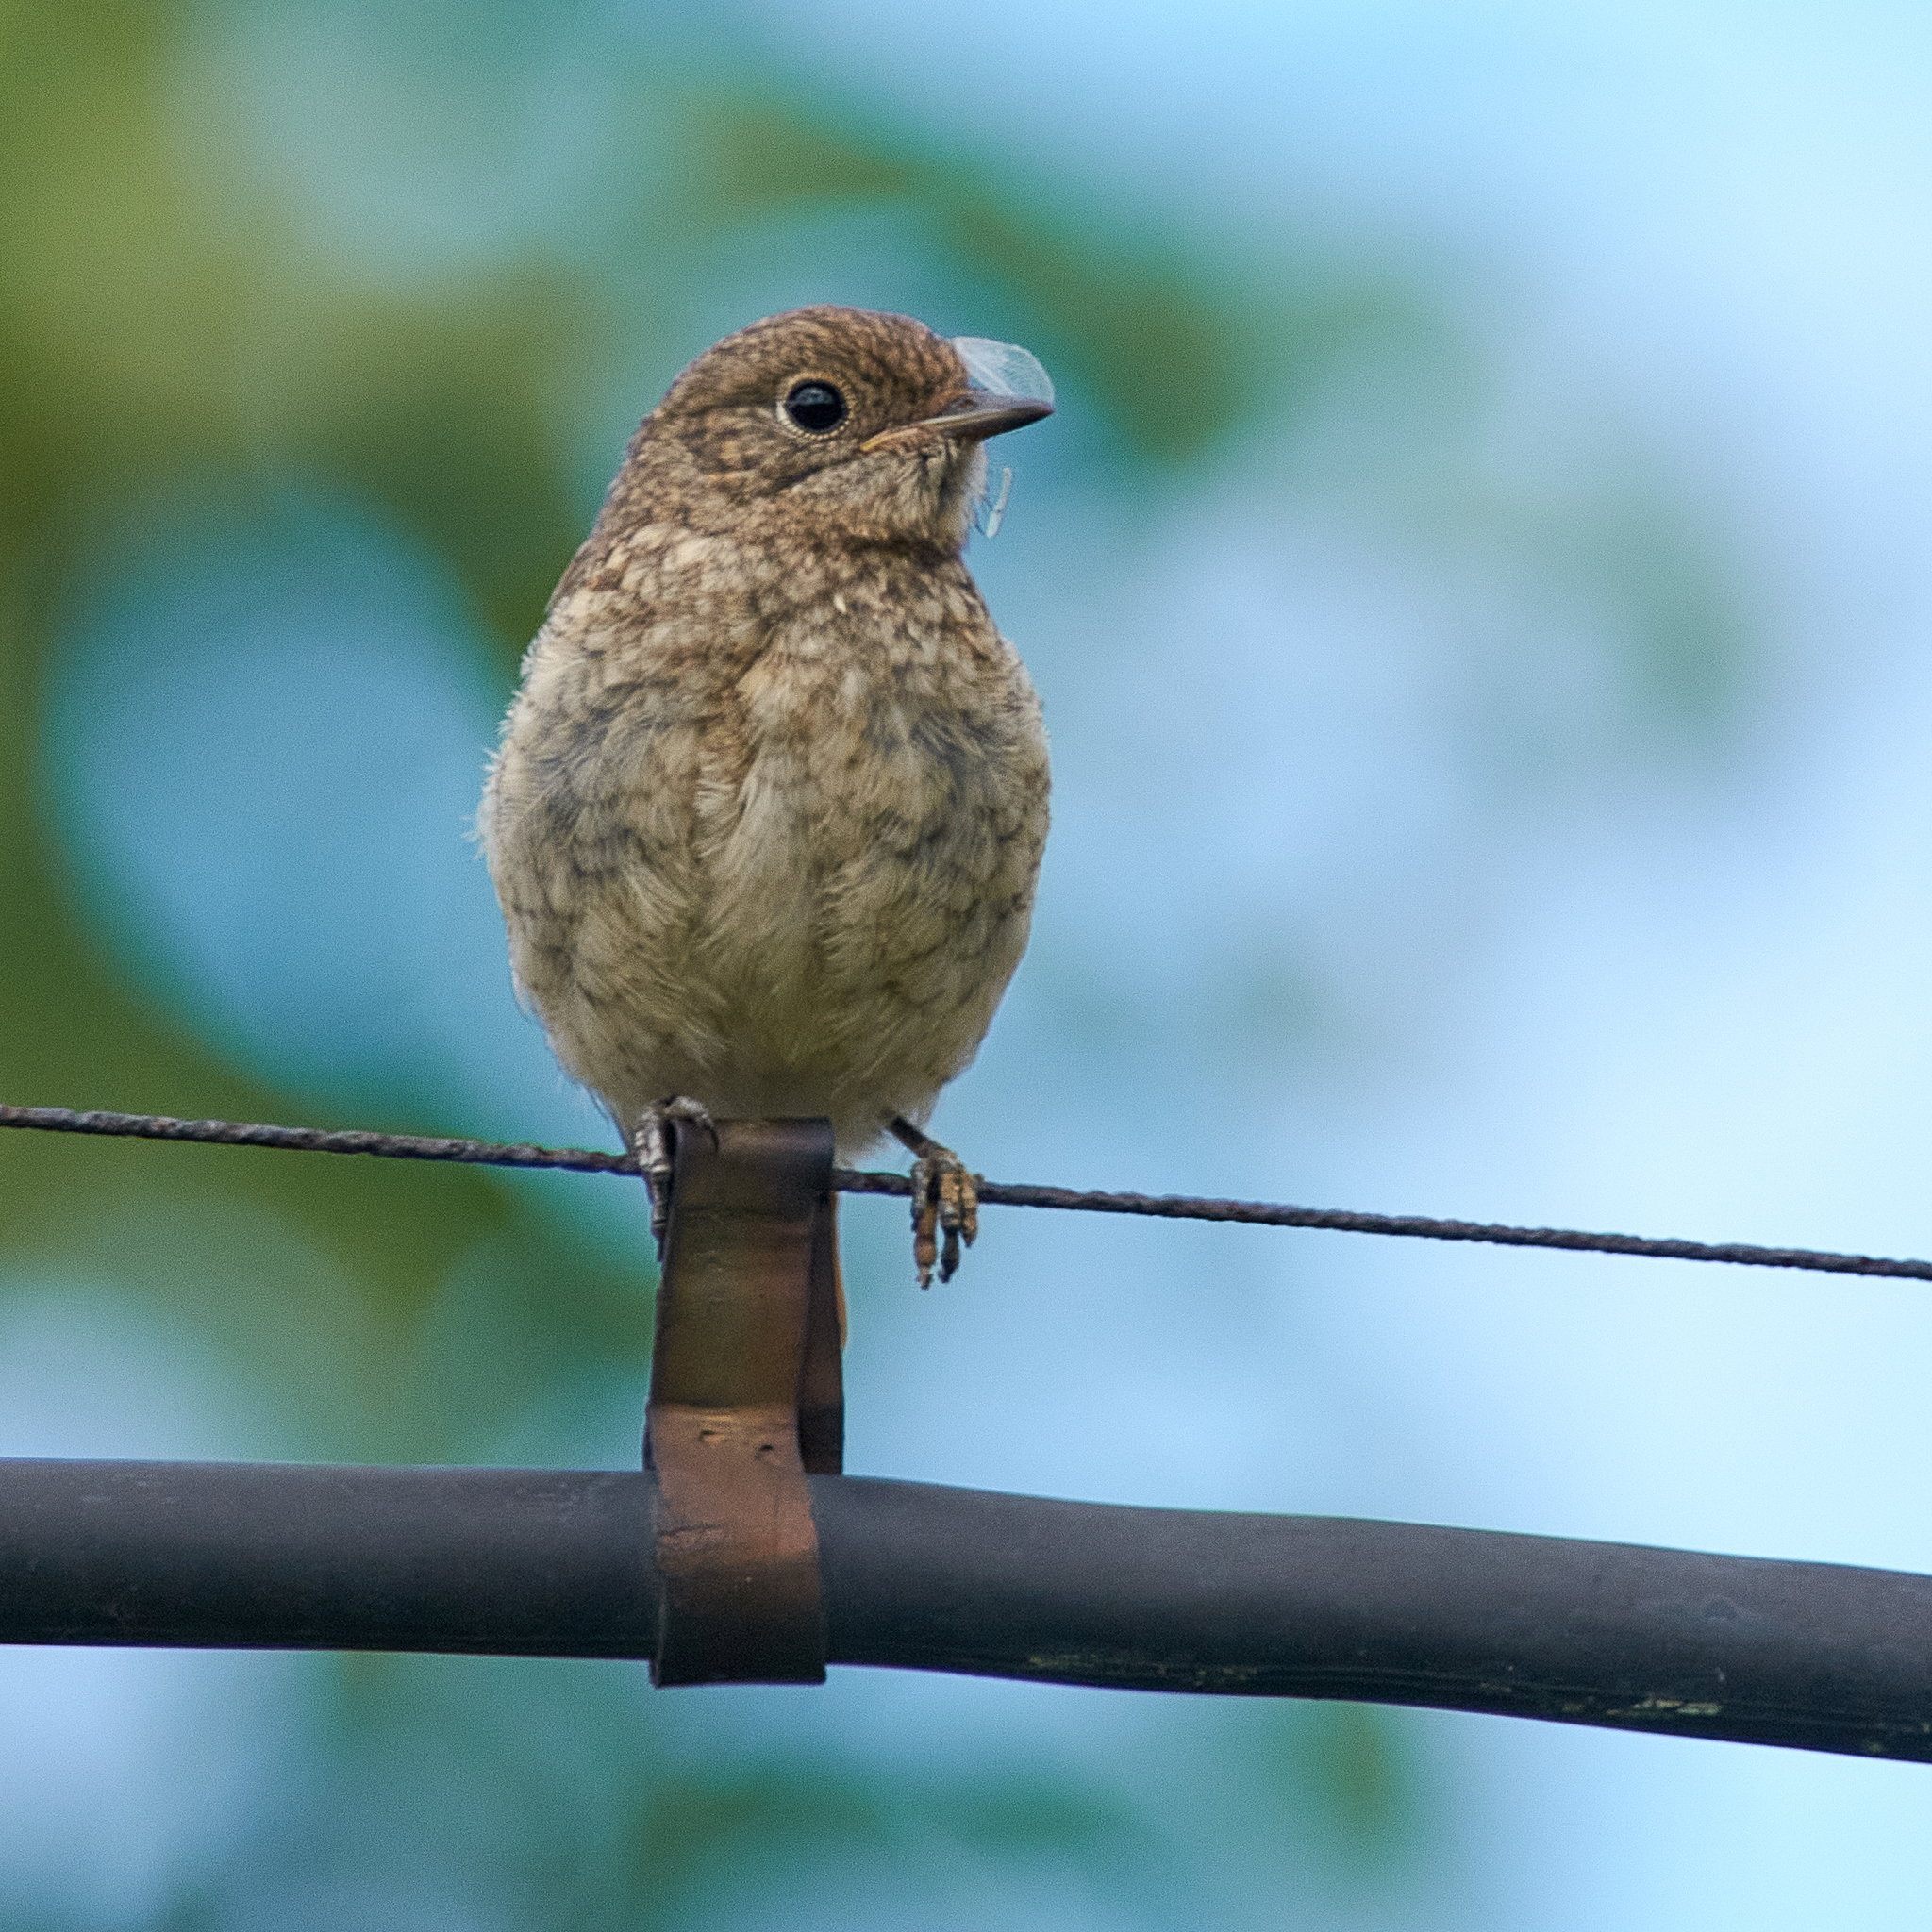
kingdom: Animalia
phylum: Chordata
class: Aves
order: Passeriformes
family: Muscicapidae
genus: Phoenicurus
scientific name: Phoenicurus phoenicurus
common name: Common redstart
